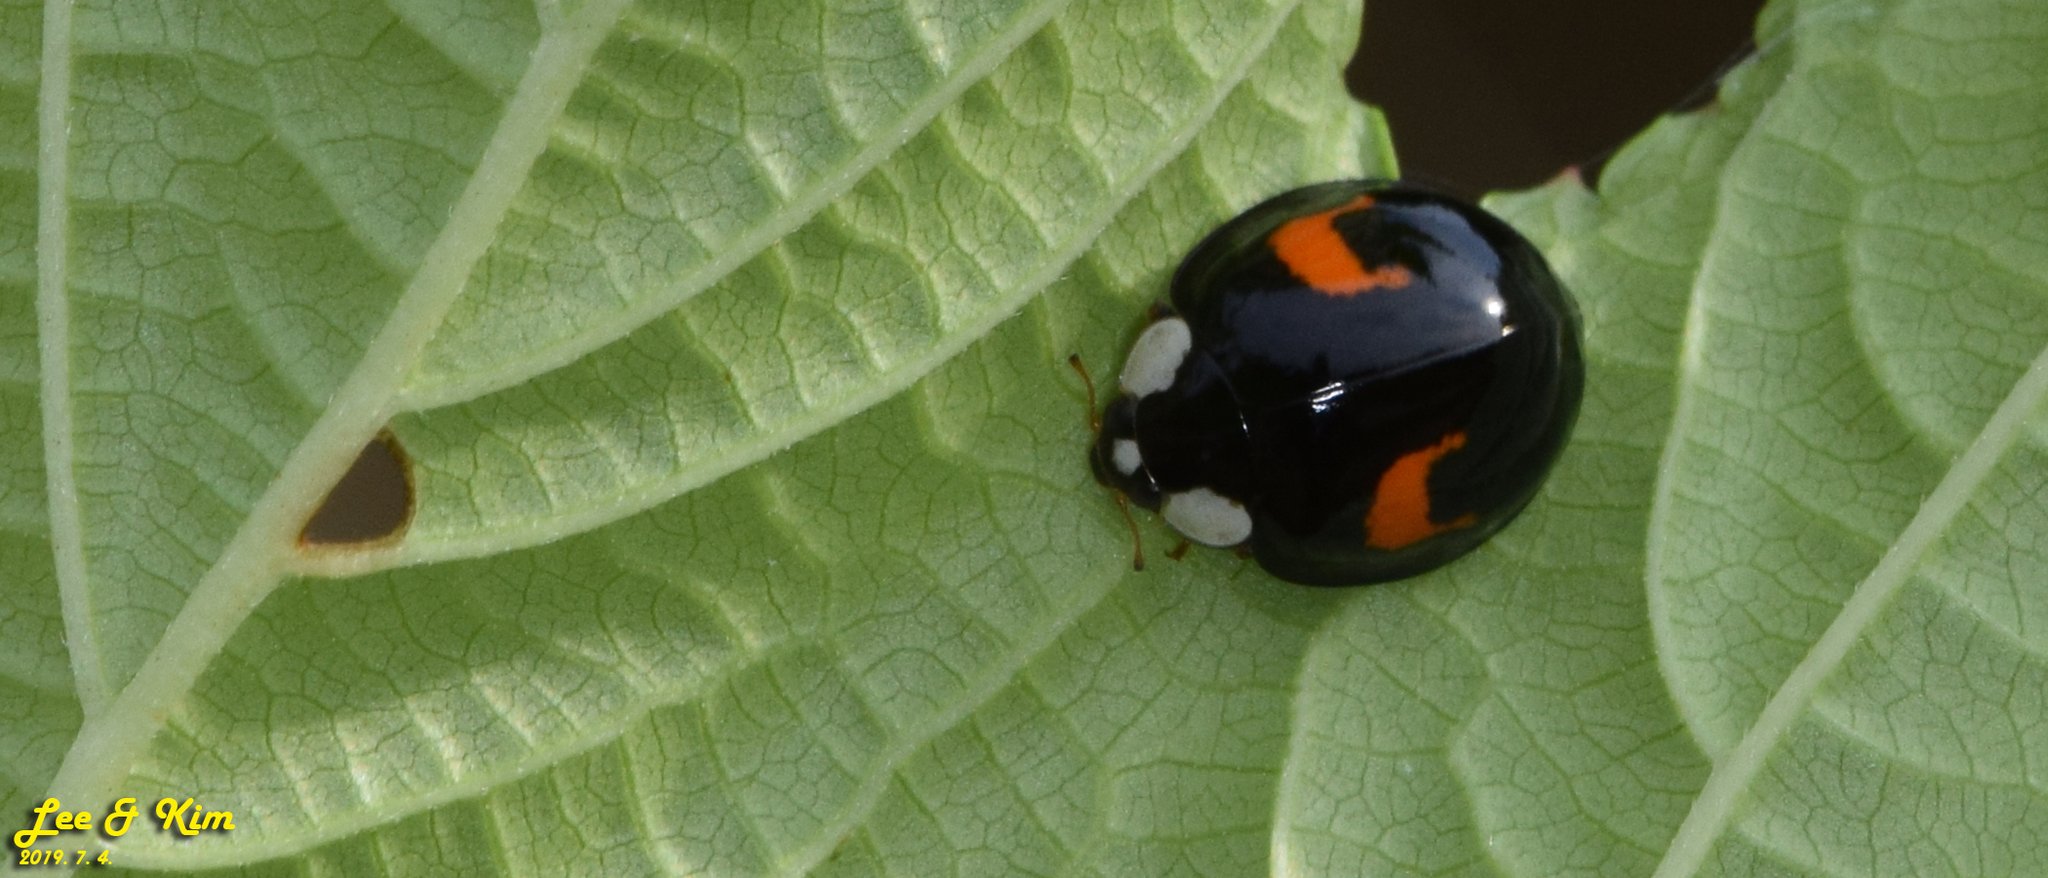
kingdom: Animalia
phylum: Arthropoda
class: Insecta
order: Coleoptera
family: Coccinellidae
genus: Harmonia
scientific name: Harmonia axyridis
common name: Harlequin ladybird
